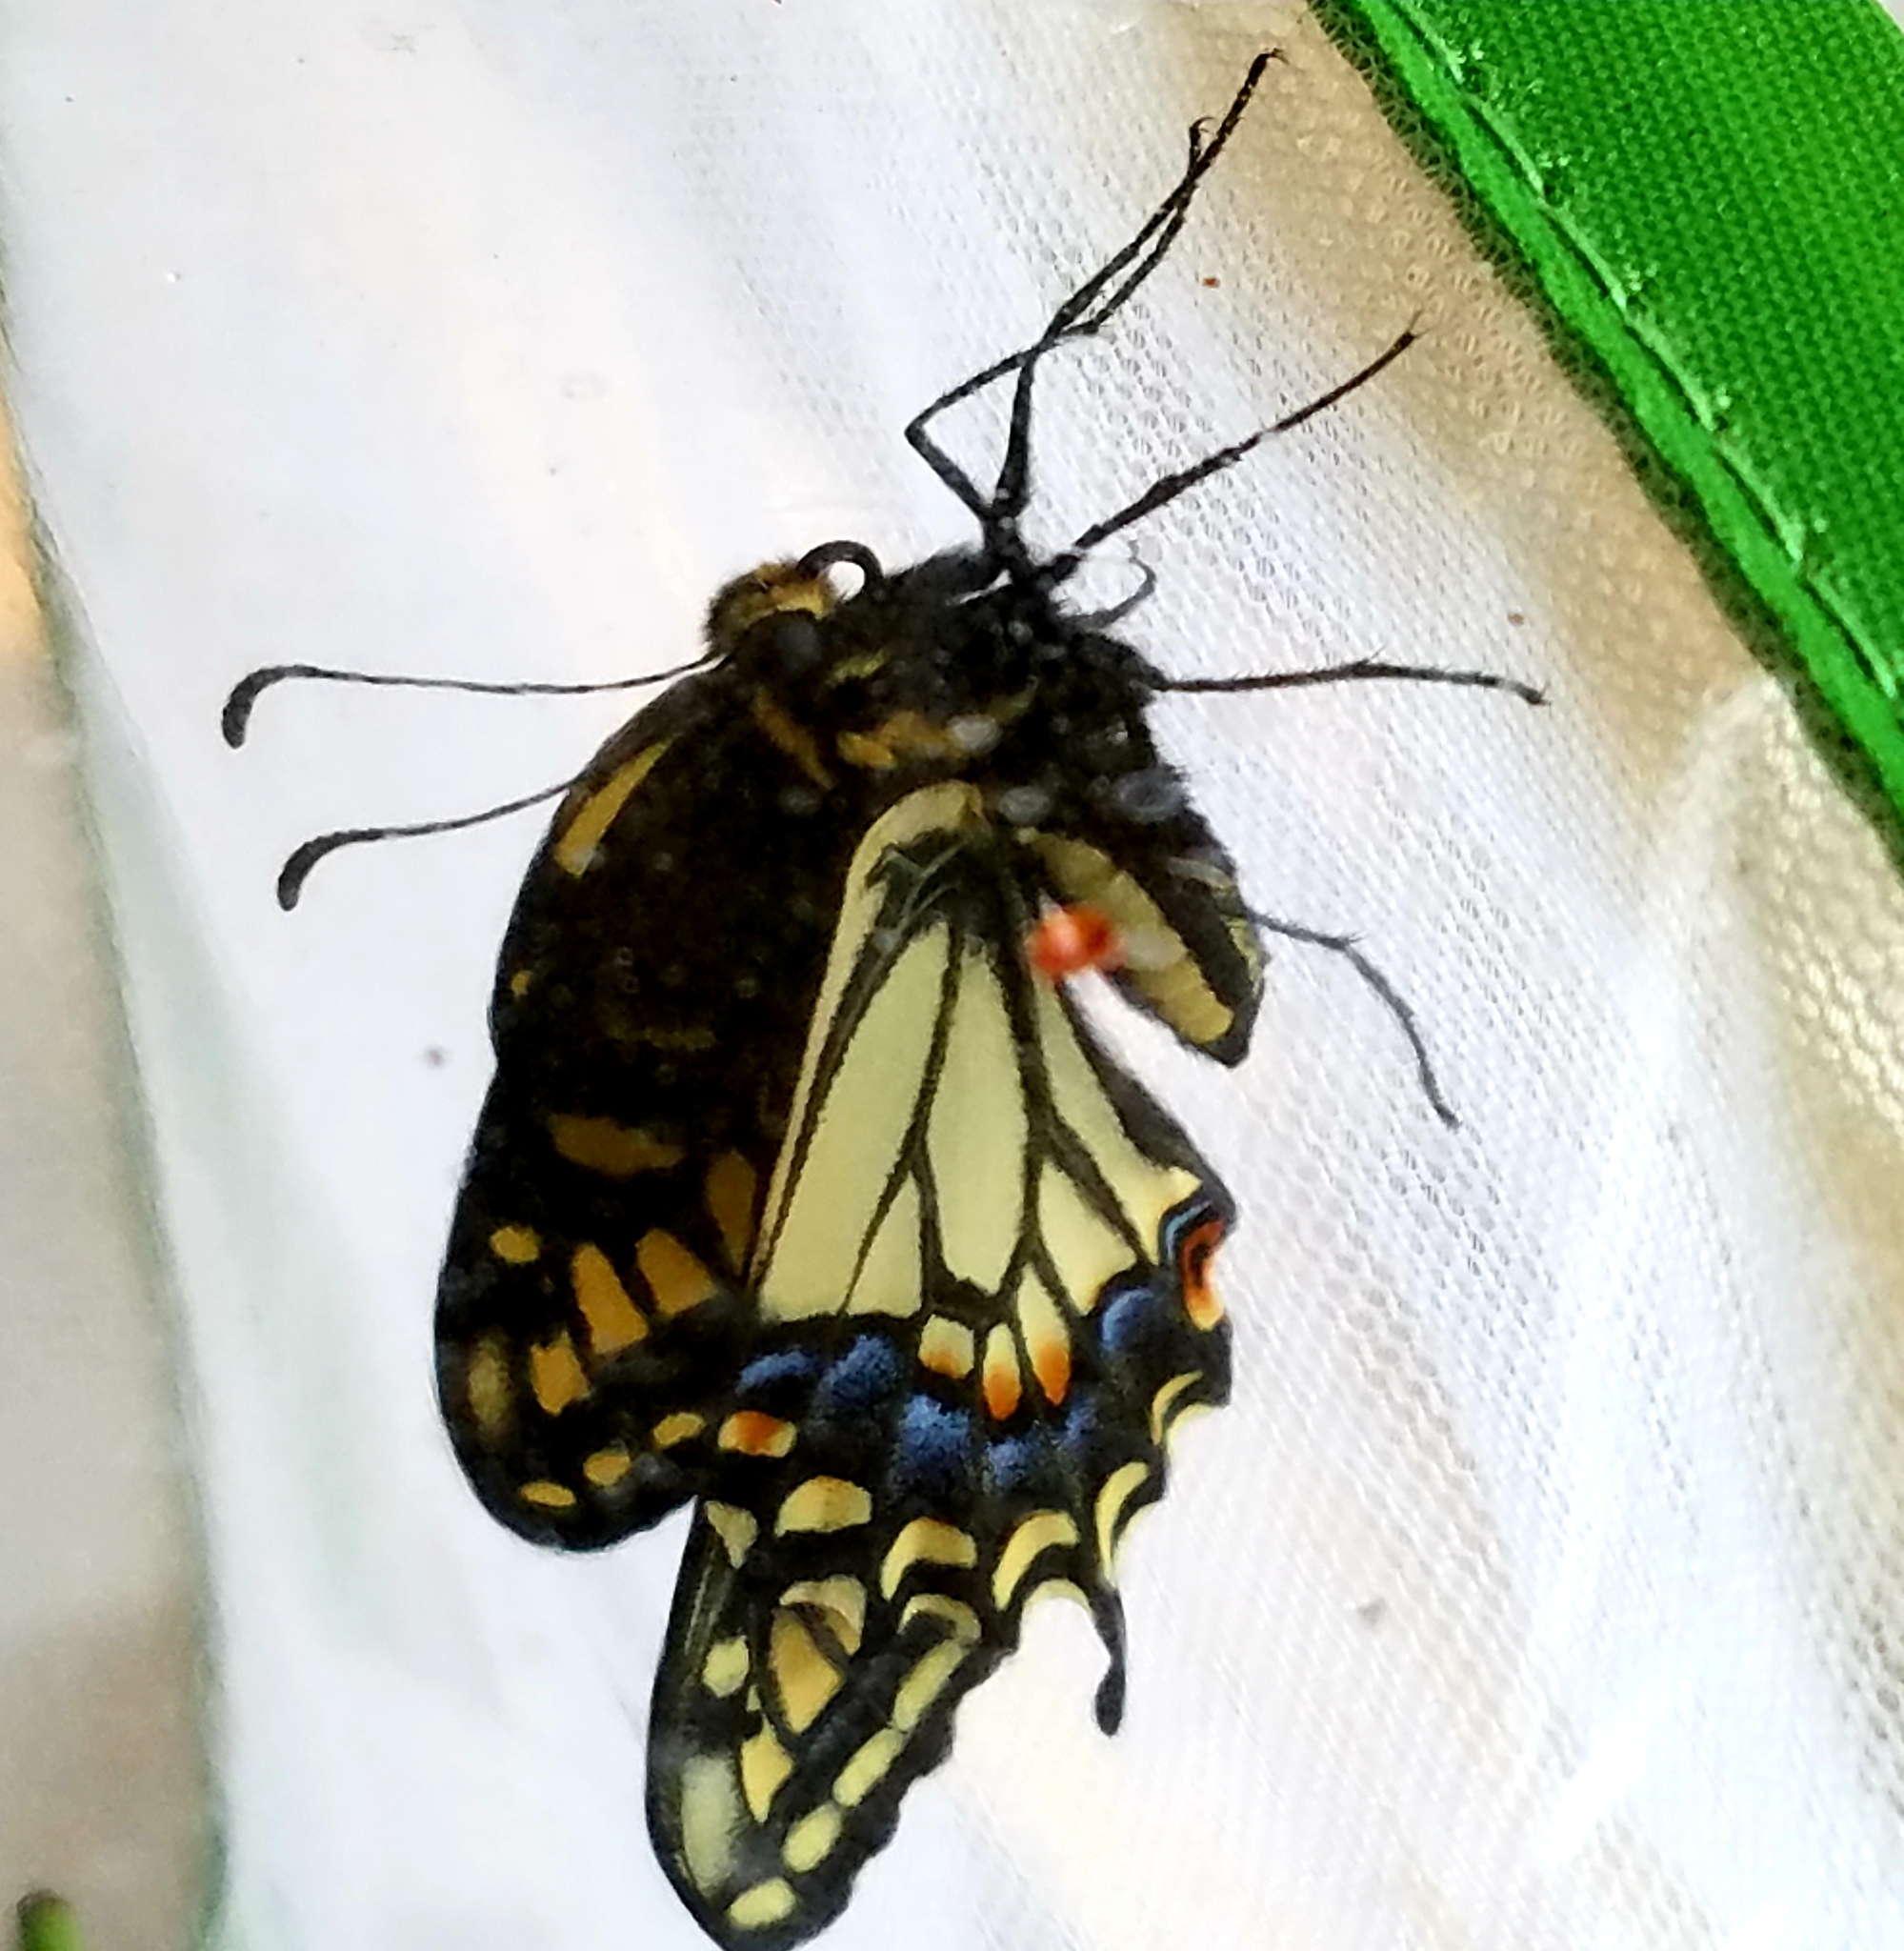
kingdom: Animalia
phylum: Arthropoda
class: Insecta
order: Lepidoptera
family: Papilionidae
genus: Papilio
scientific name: Papilio zelicaon
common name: Anise swallowtail
